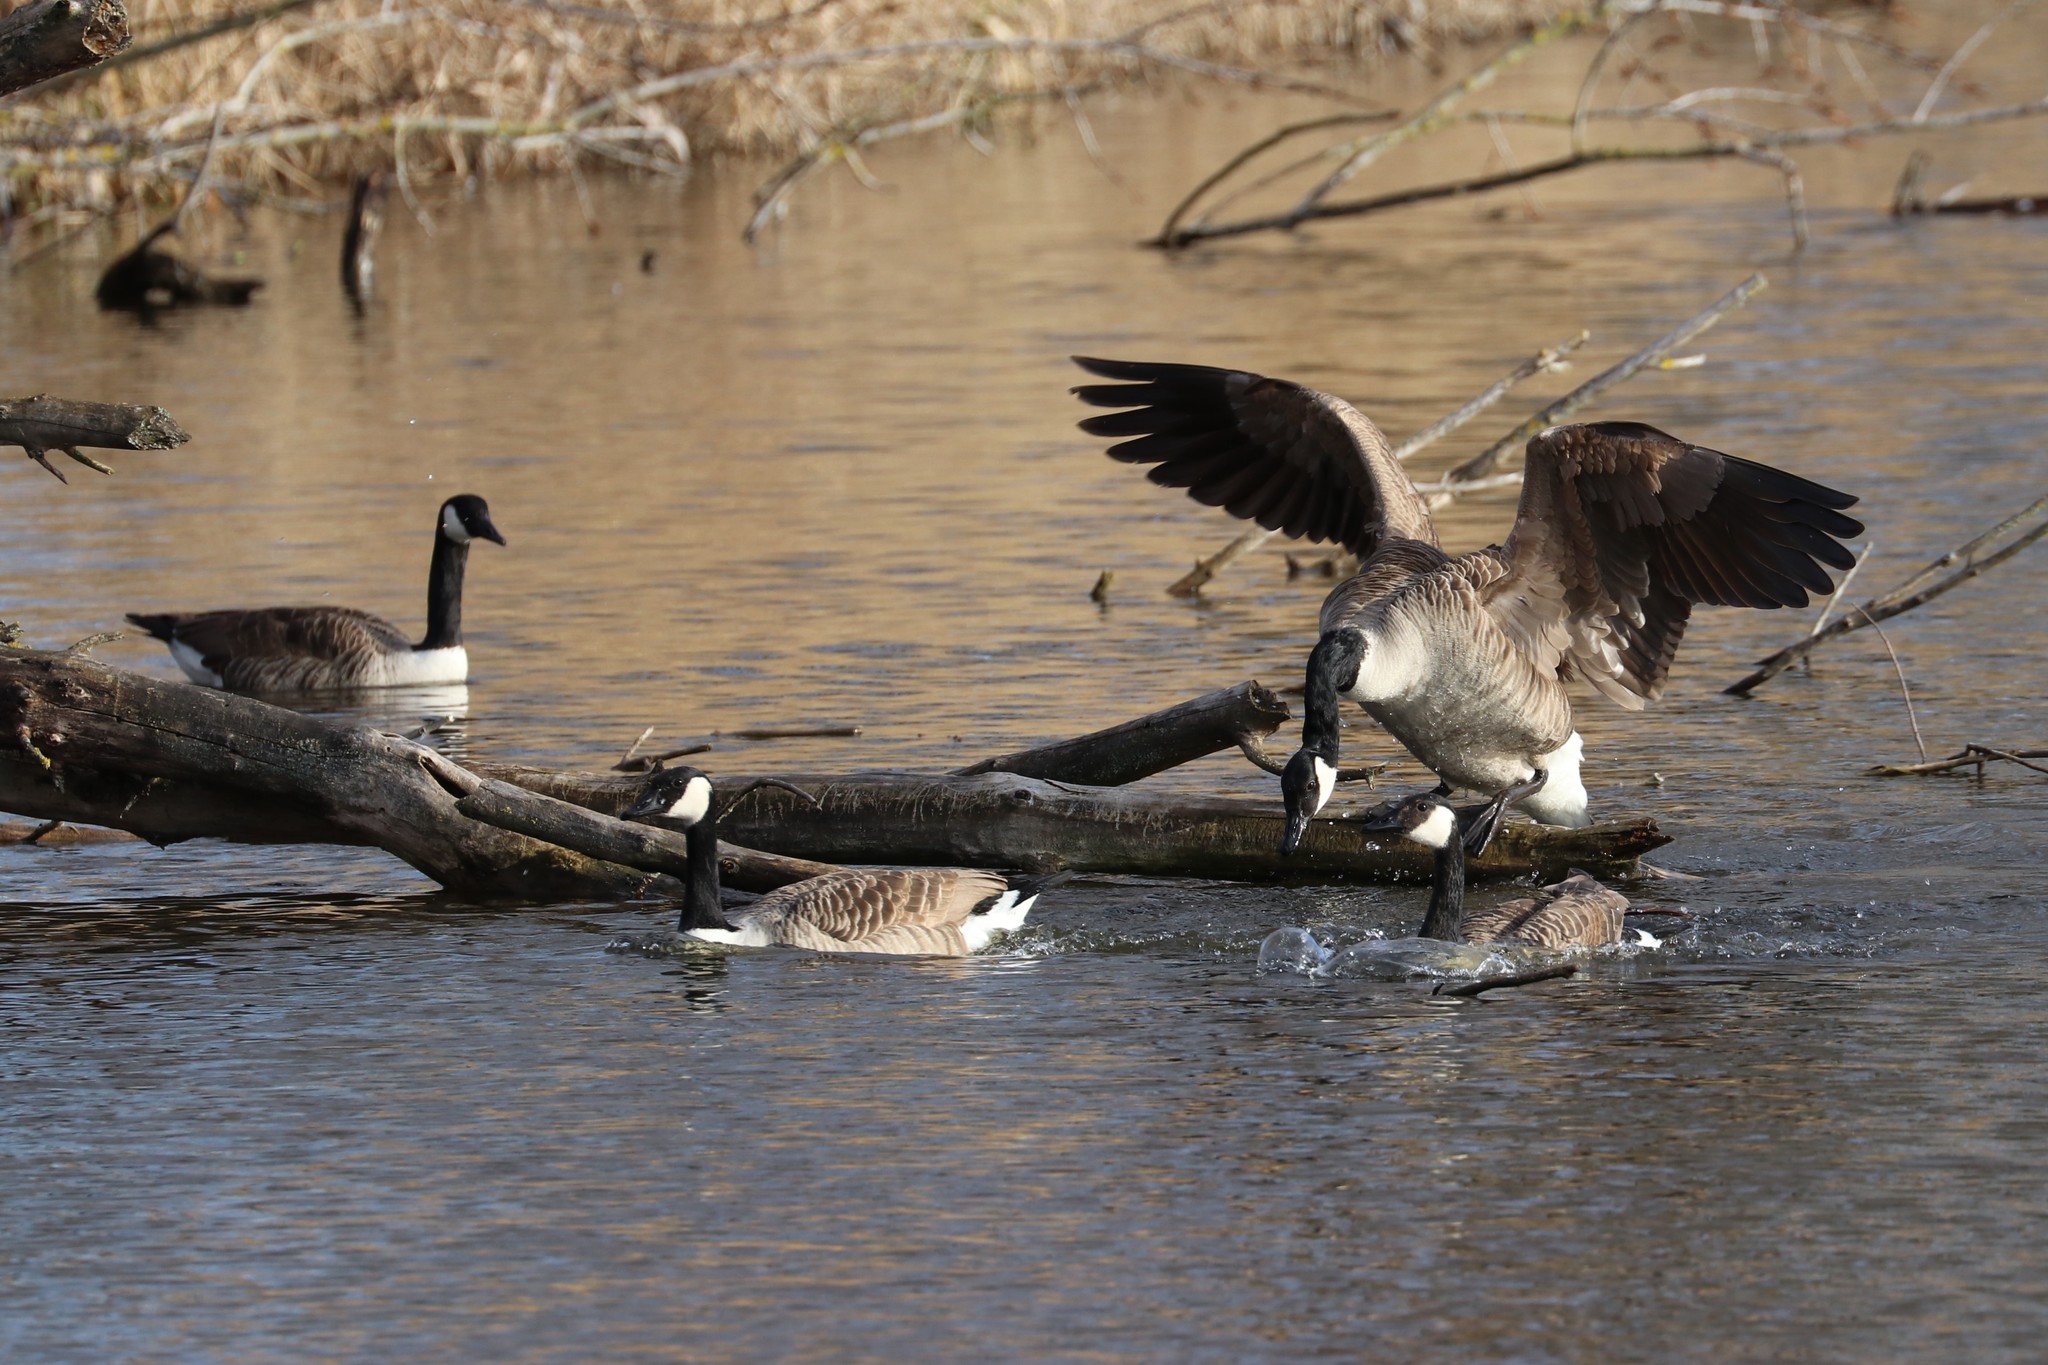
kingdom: Animalia
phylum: Chordata
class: Aves
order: Anseriformes
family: Anatidae
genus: Branta
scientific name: Branta canadensis
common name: Canada goose
